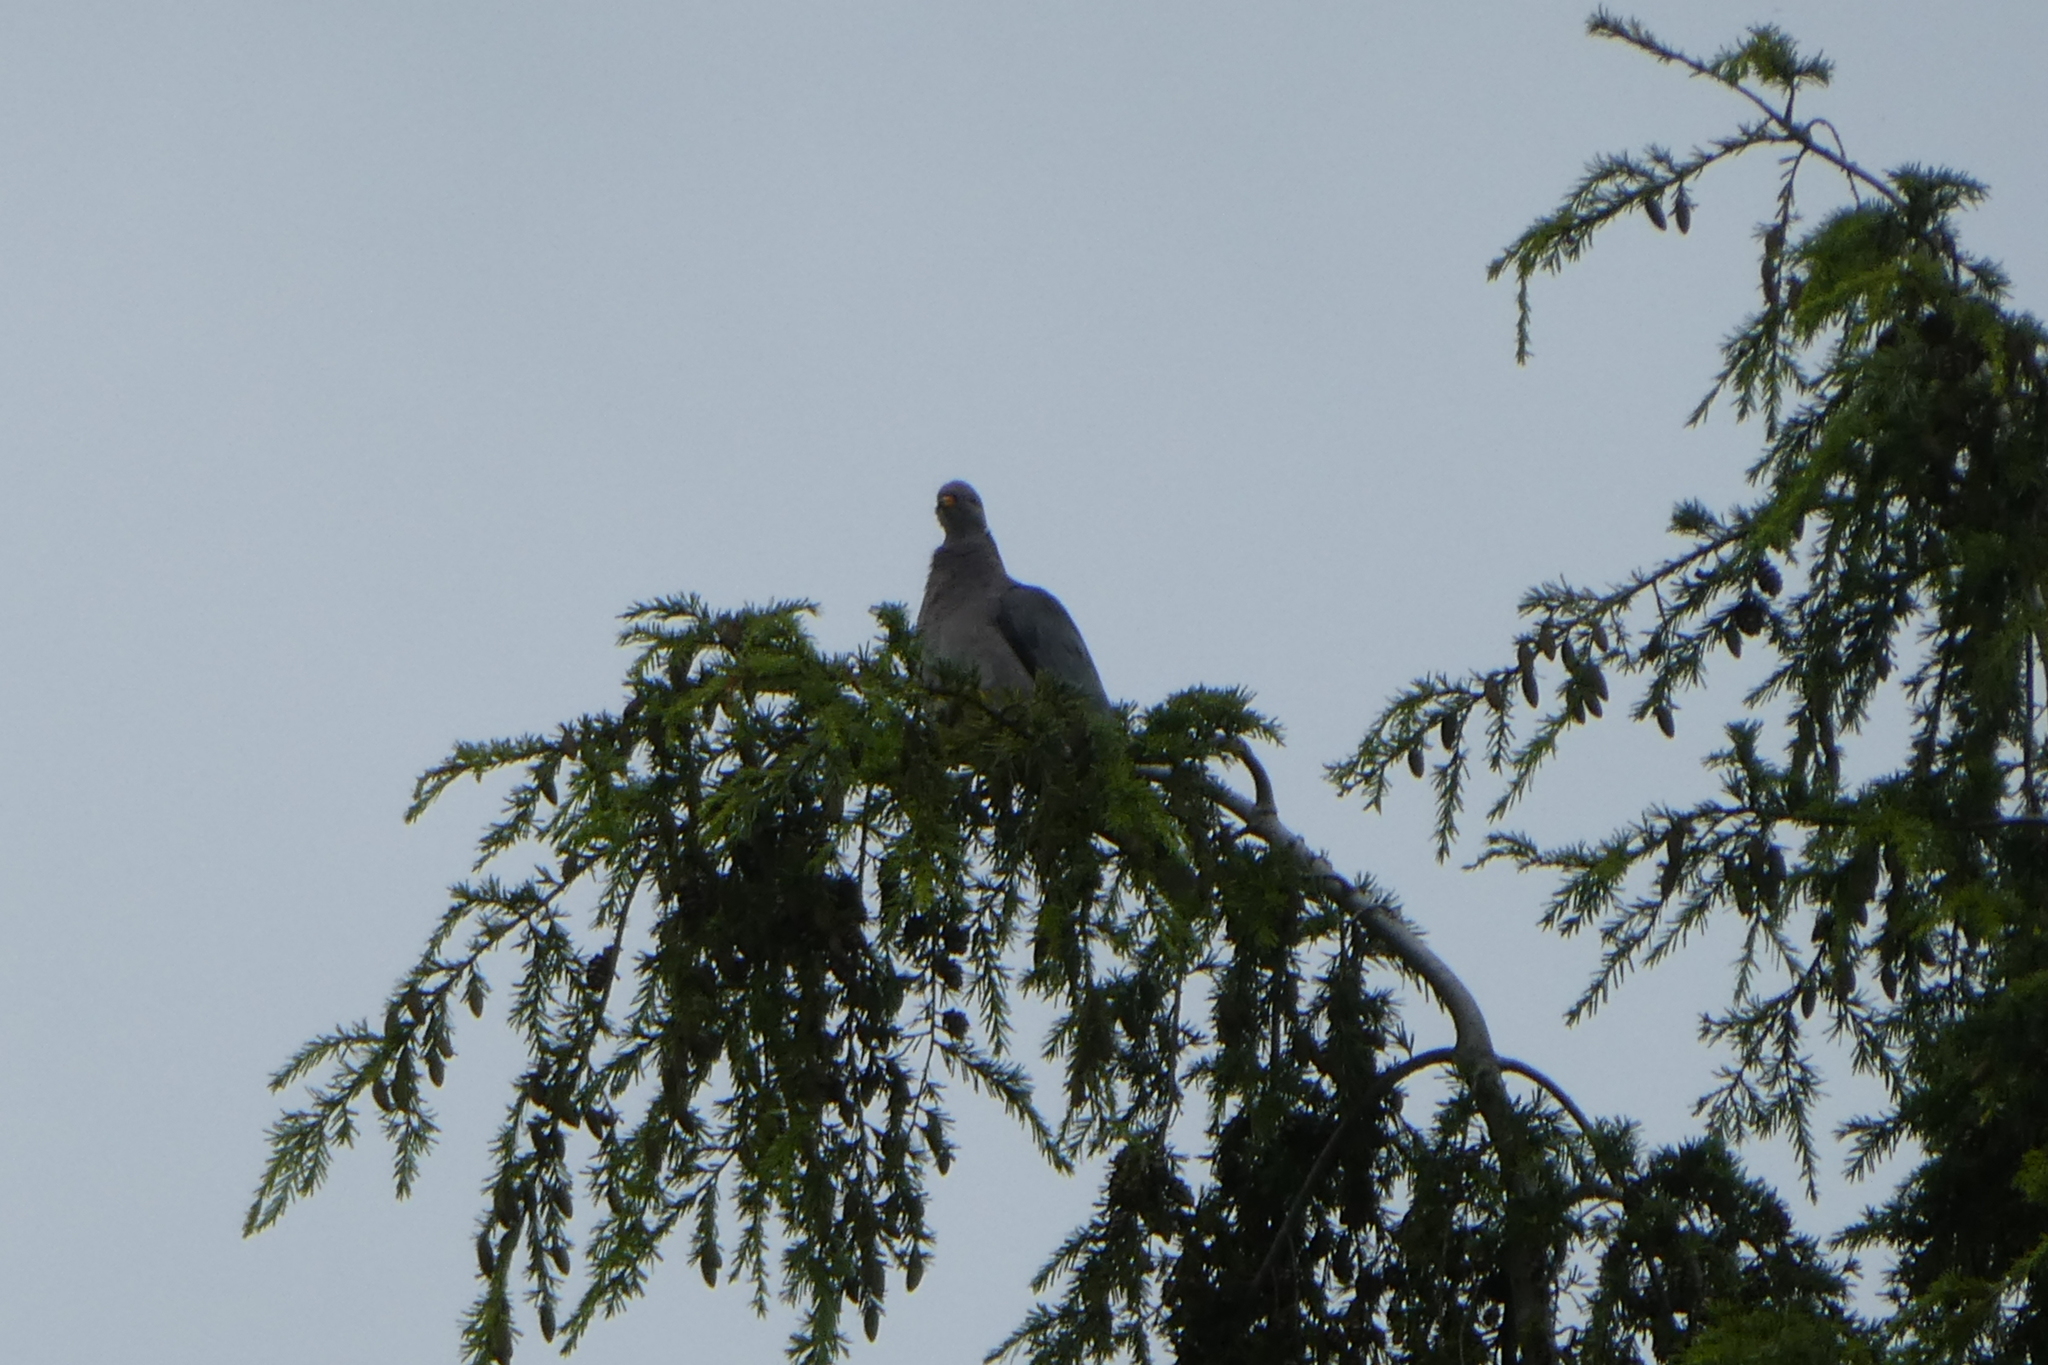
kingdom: Animalia
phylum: Chordata
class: Aves
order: Columbiformes
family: Columbidae
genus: Patagioenas
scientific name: Patagioenas fasciata
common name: Band-tailed pigeon
